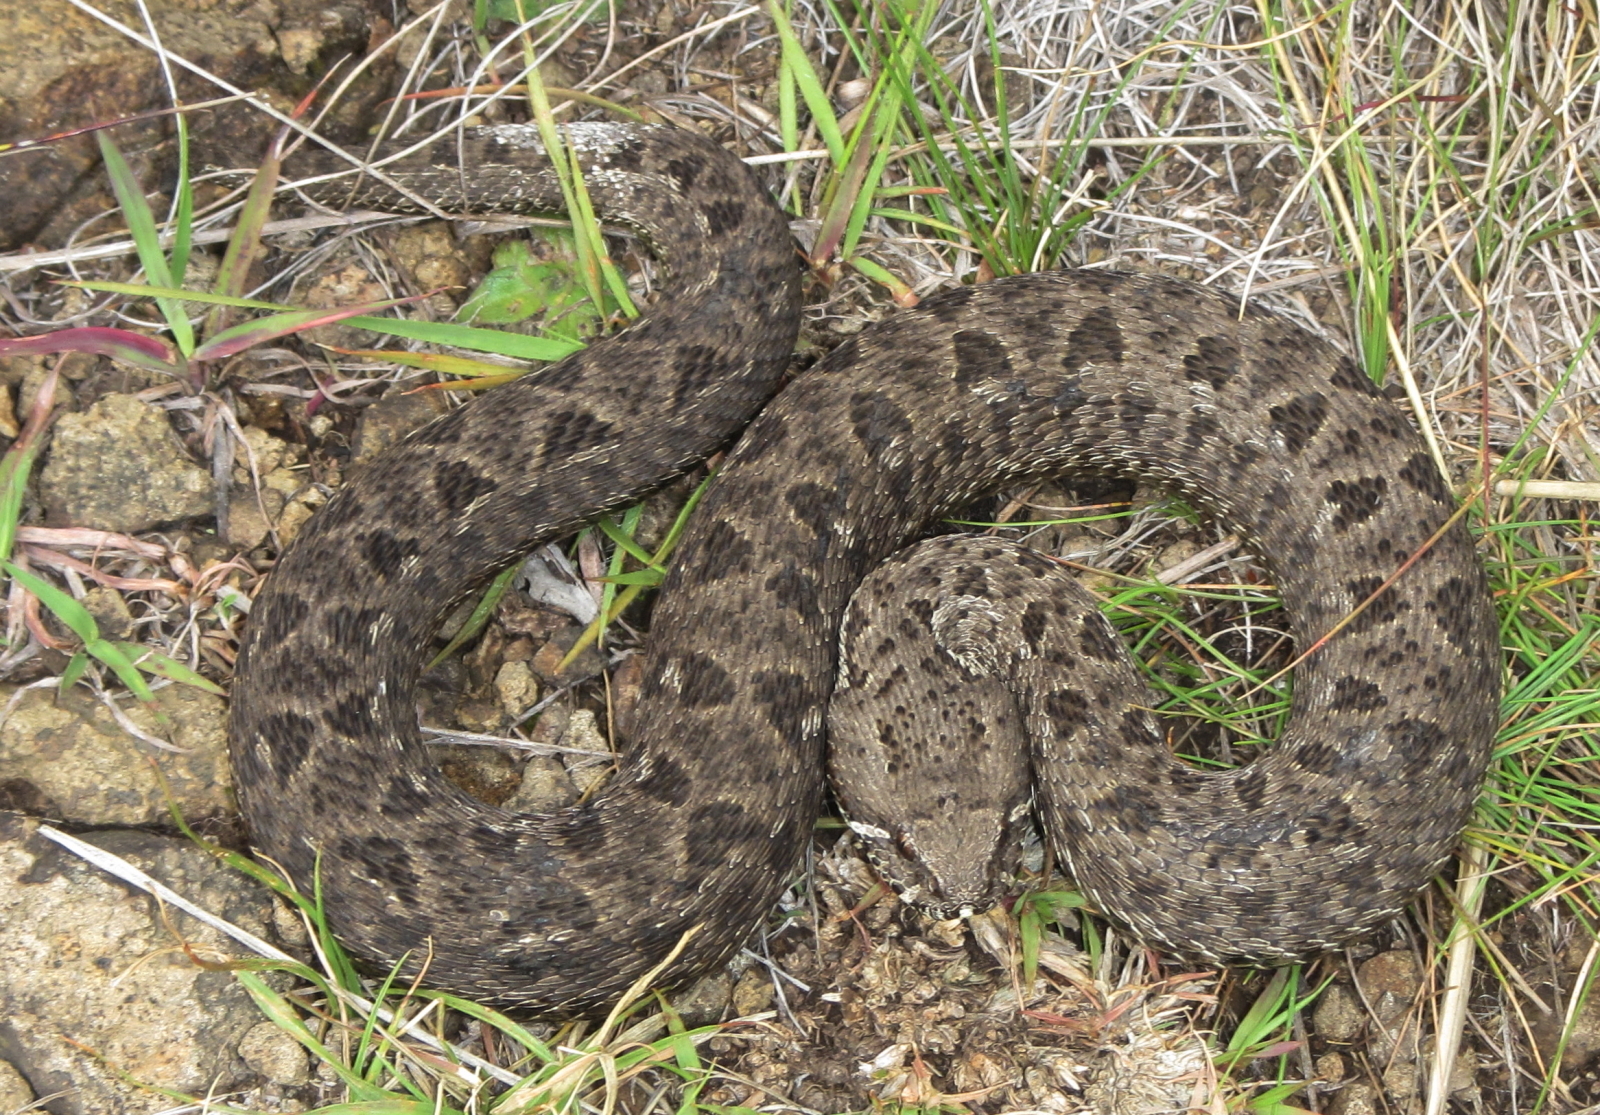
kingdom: Animalia
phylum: Chordata
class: Squamata
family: Viperidae
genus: Bitis
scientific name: Bitis atropos
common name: Mountain adder
